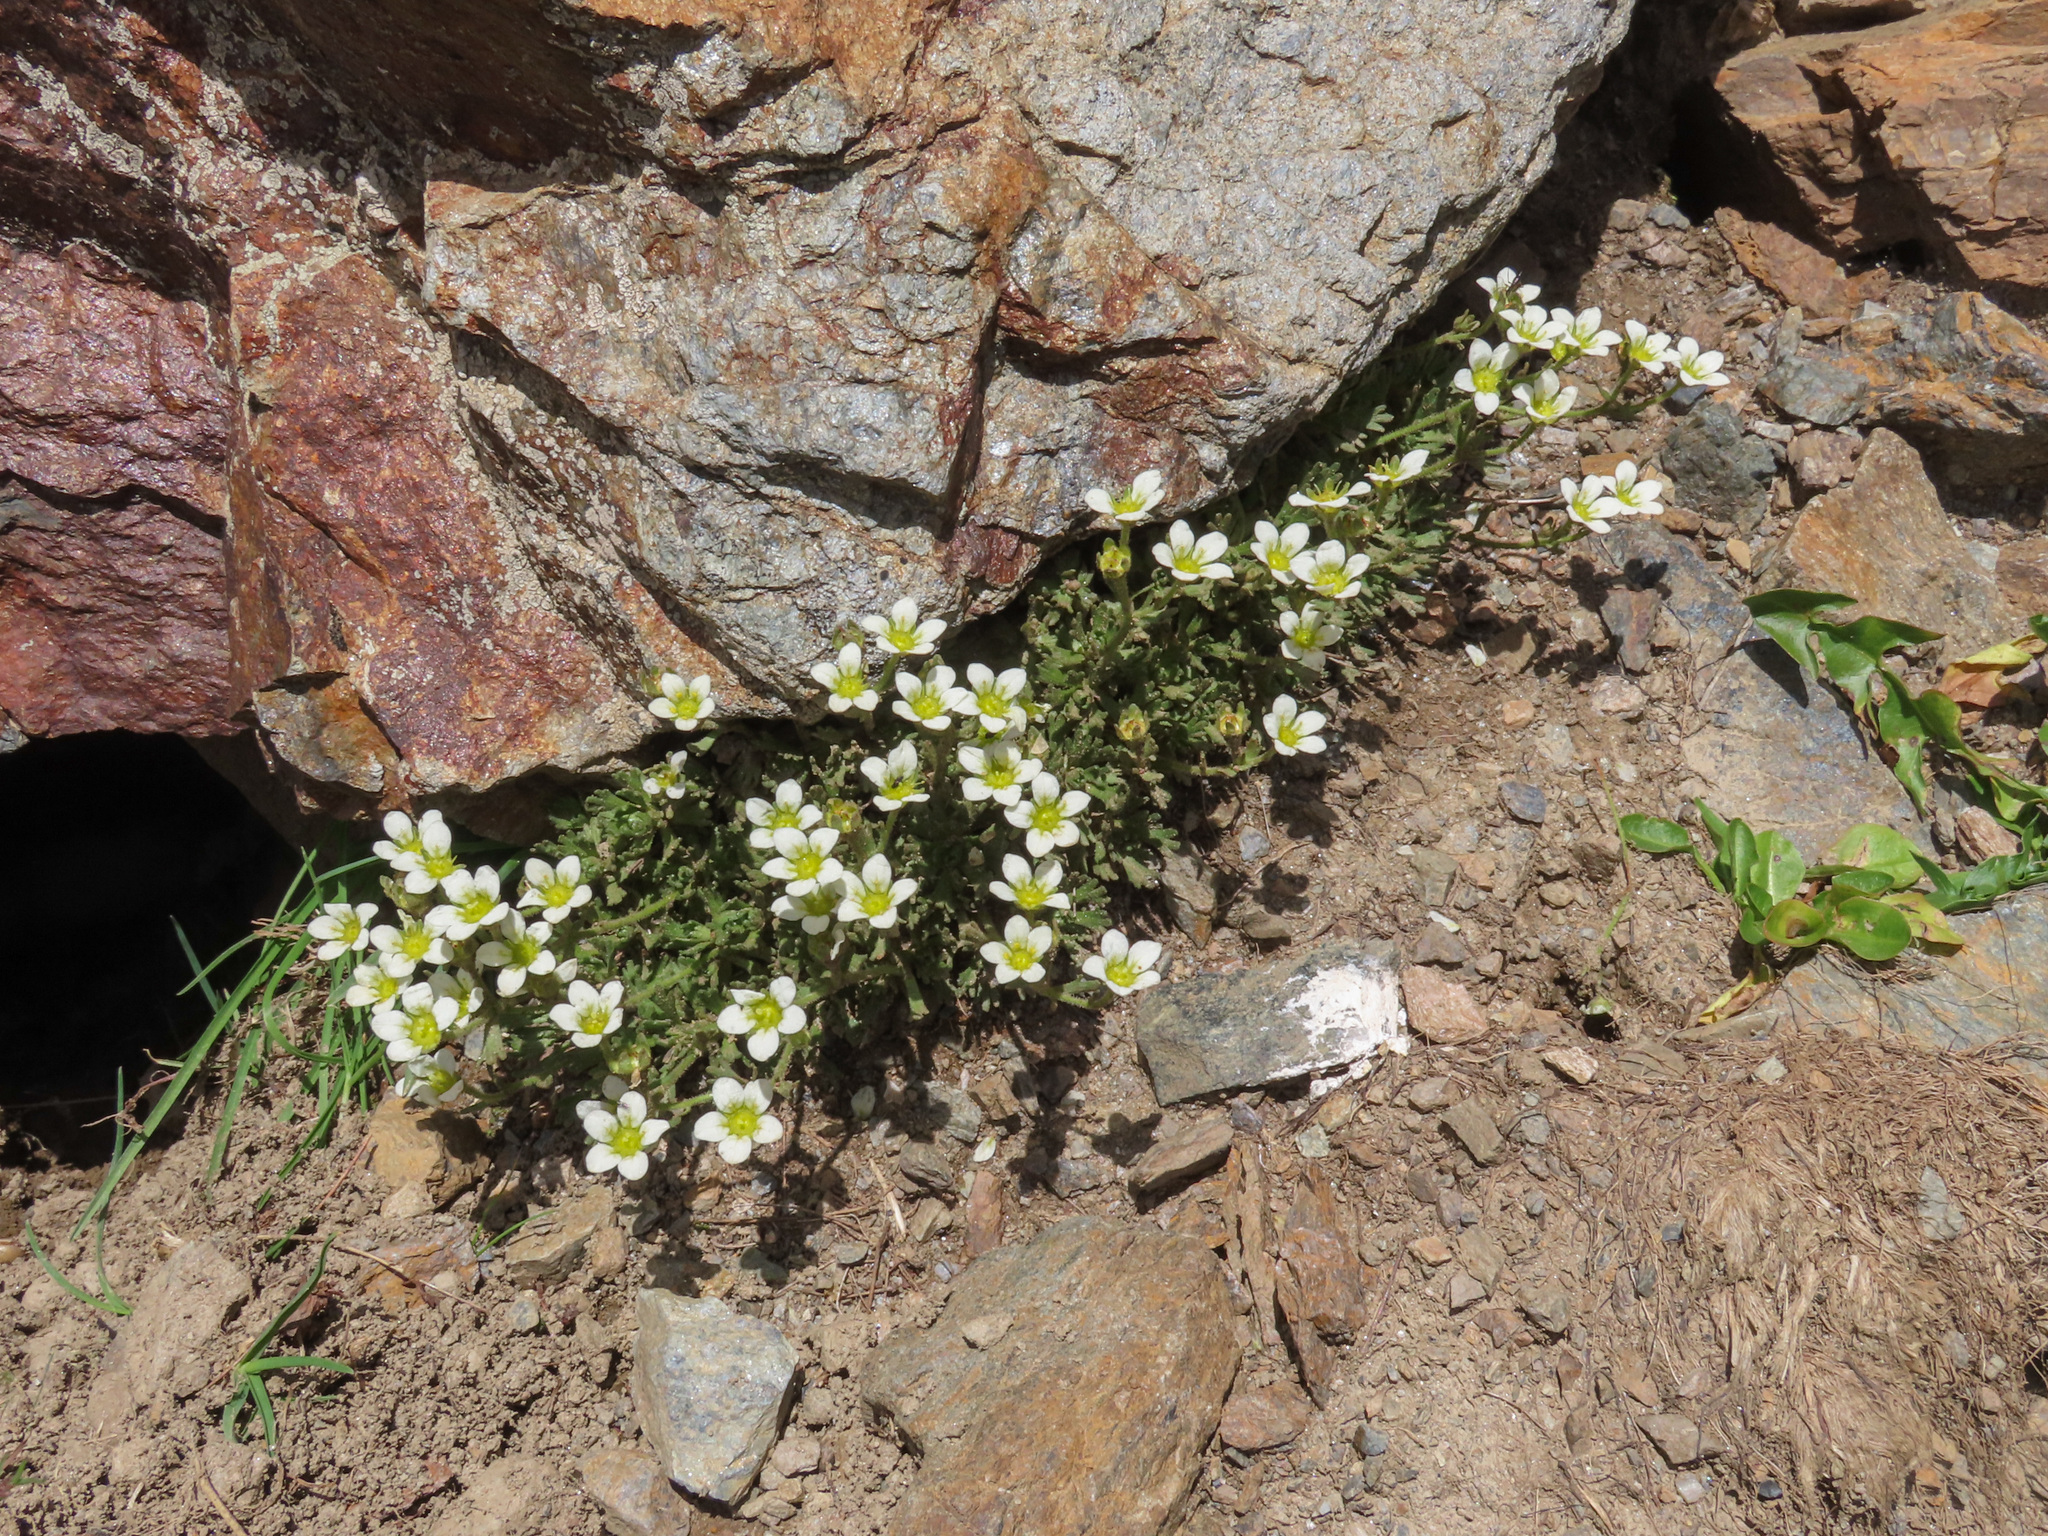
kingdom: Plantae
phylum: Tracheophyta
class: Magnoliopsida
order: Saxifragales
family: Saxifragaceae
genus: Saxifraga
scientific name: Saxifraga exarata
